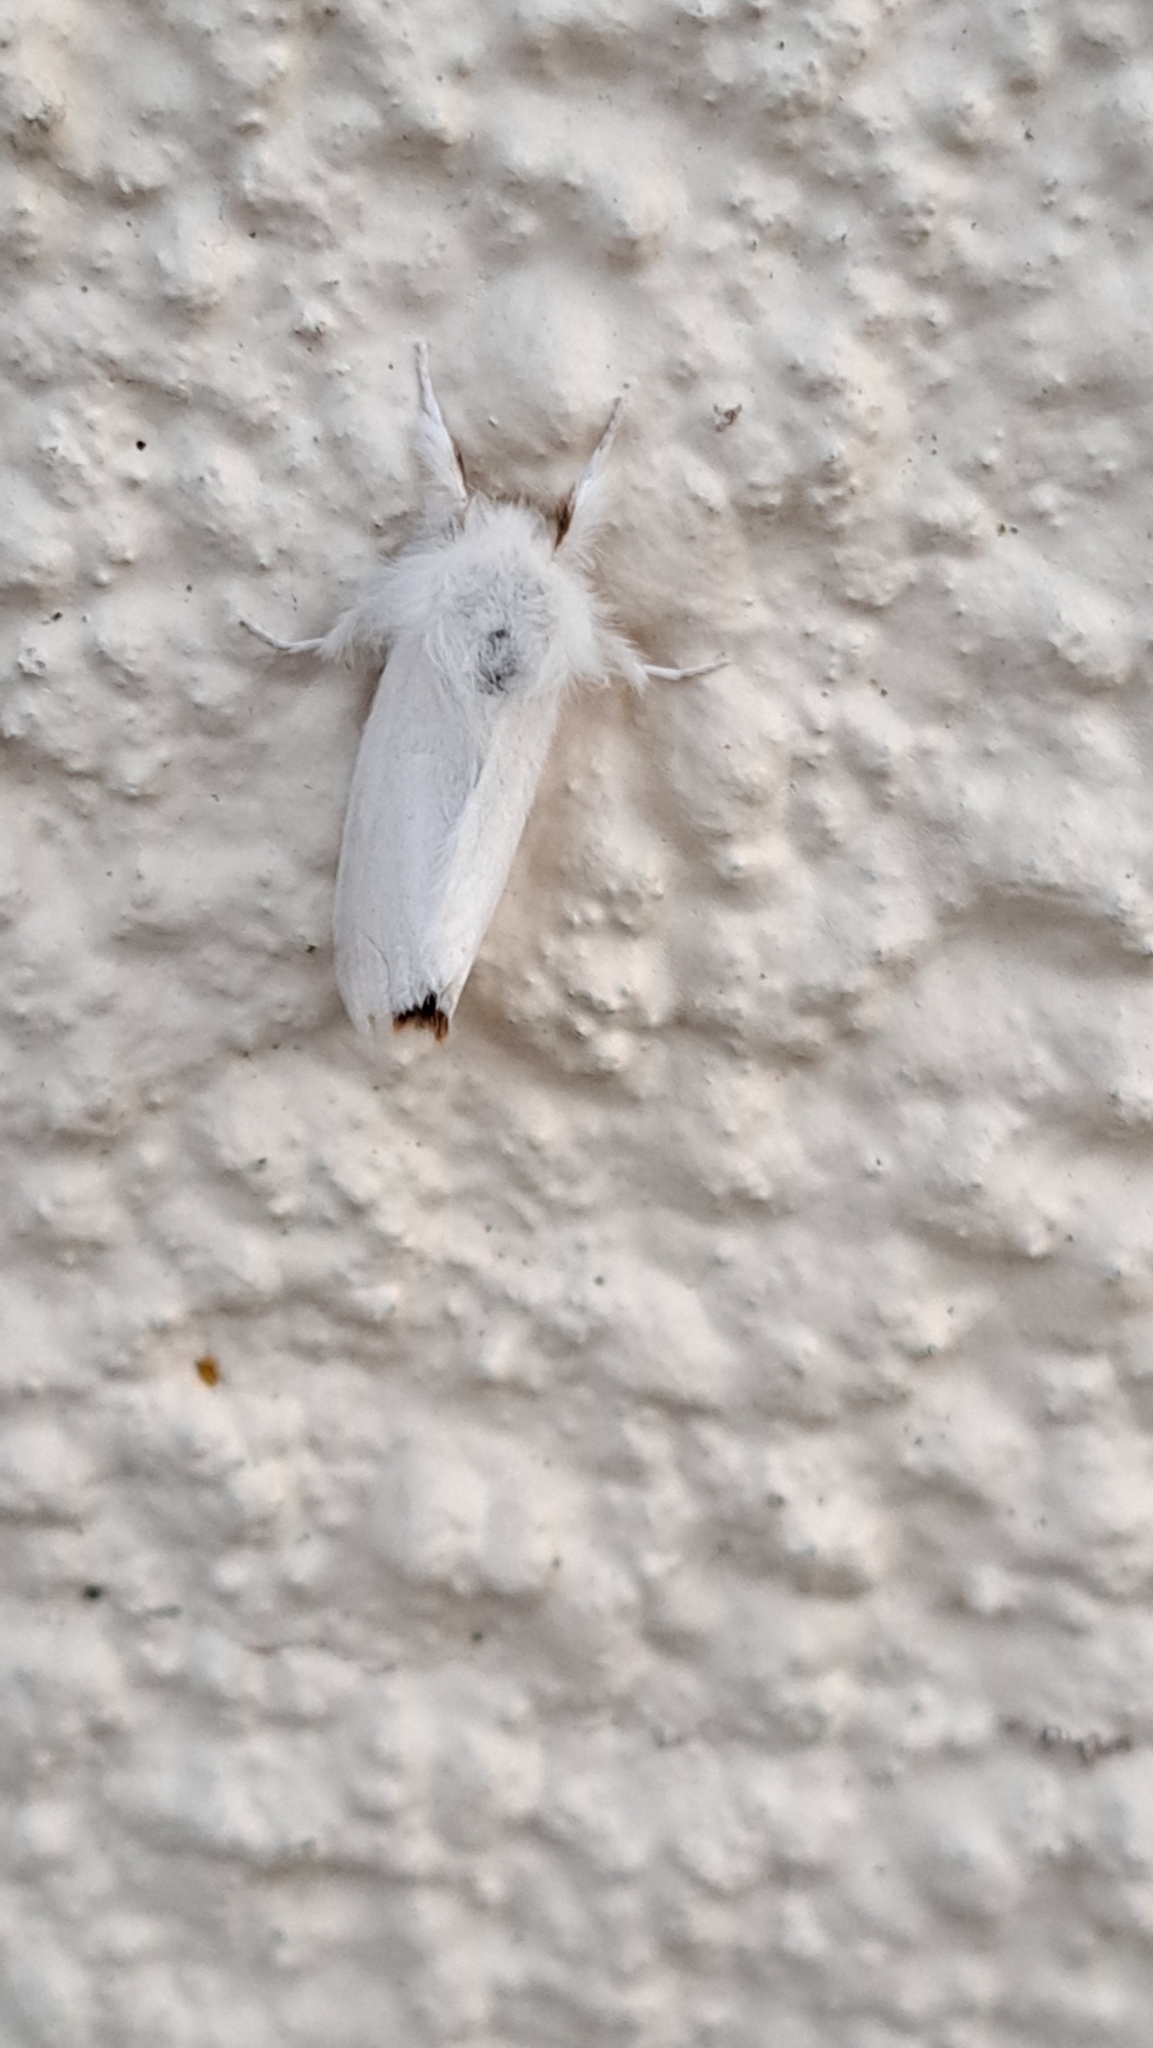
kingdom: Animalia
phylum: Arthropoda
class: Insecta
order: Lepidoptera
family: Erebidae
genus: Euproctis
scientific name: Euproctis chrysorrhoea
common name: Brown-tail
